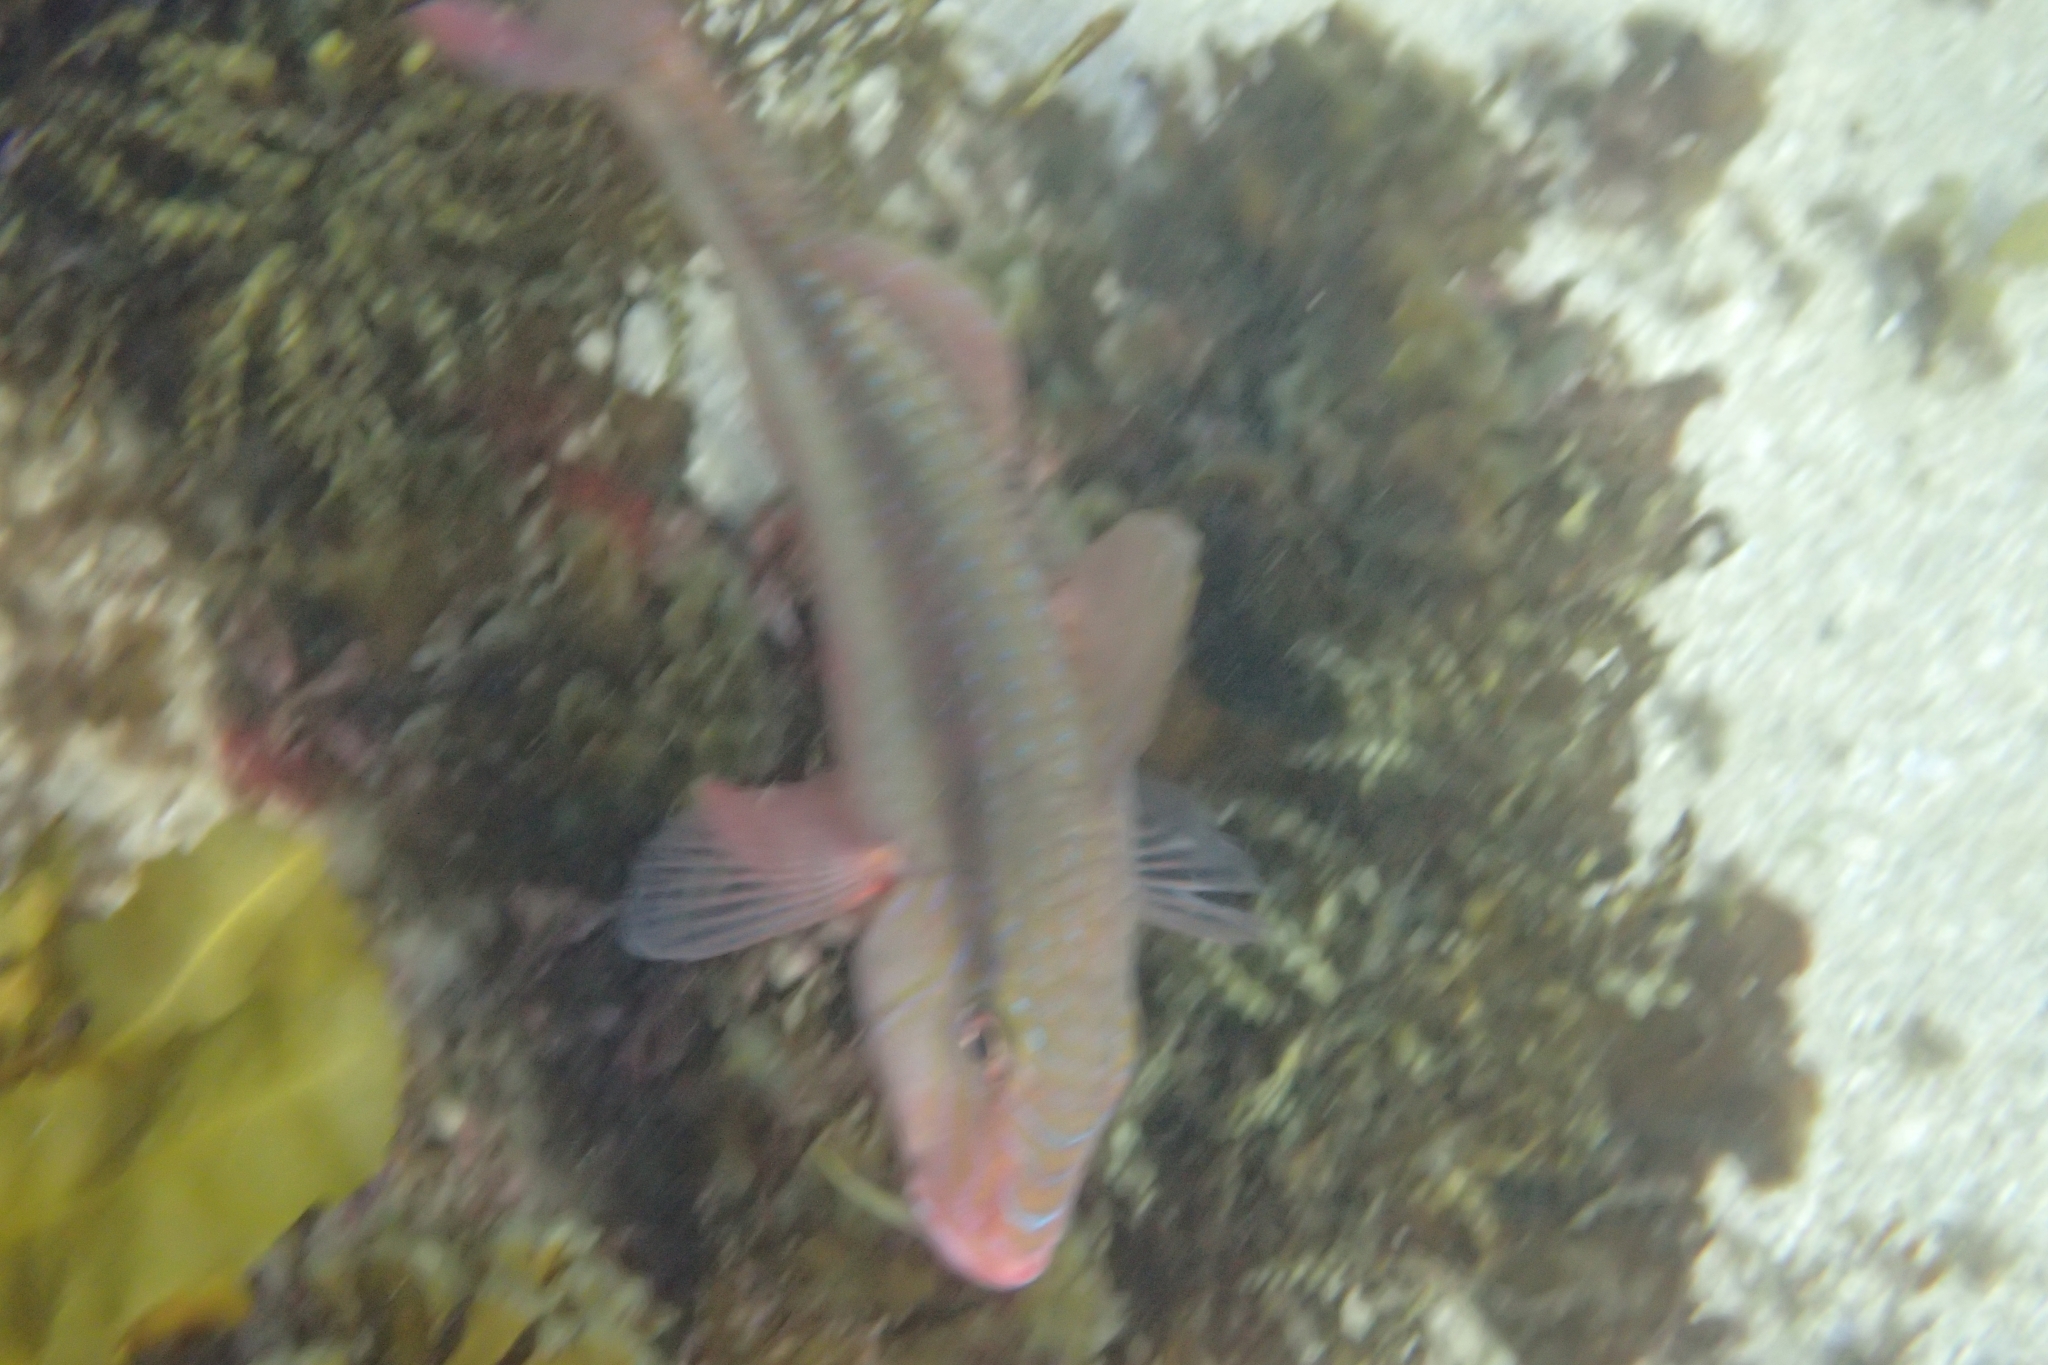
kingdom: Animalia
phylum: Chordata
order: Perciformes
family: Mullidae
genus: Upeneichthys
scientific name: Upeneichthys lineatus
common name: Red mullet
